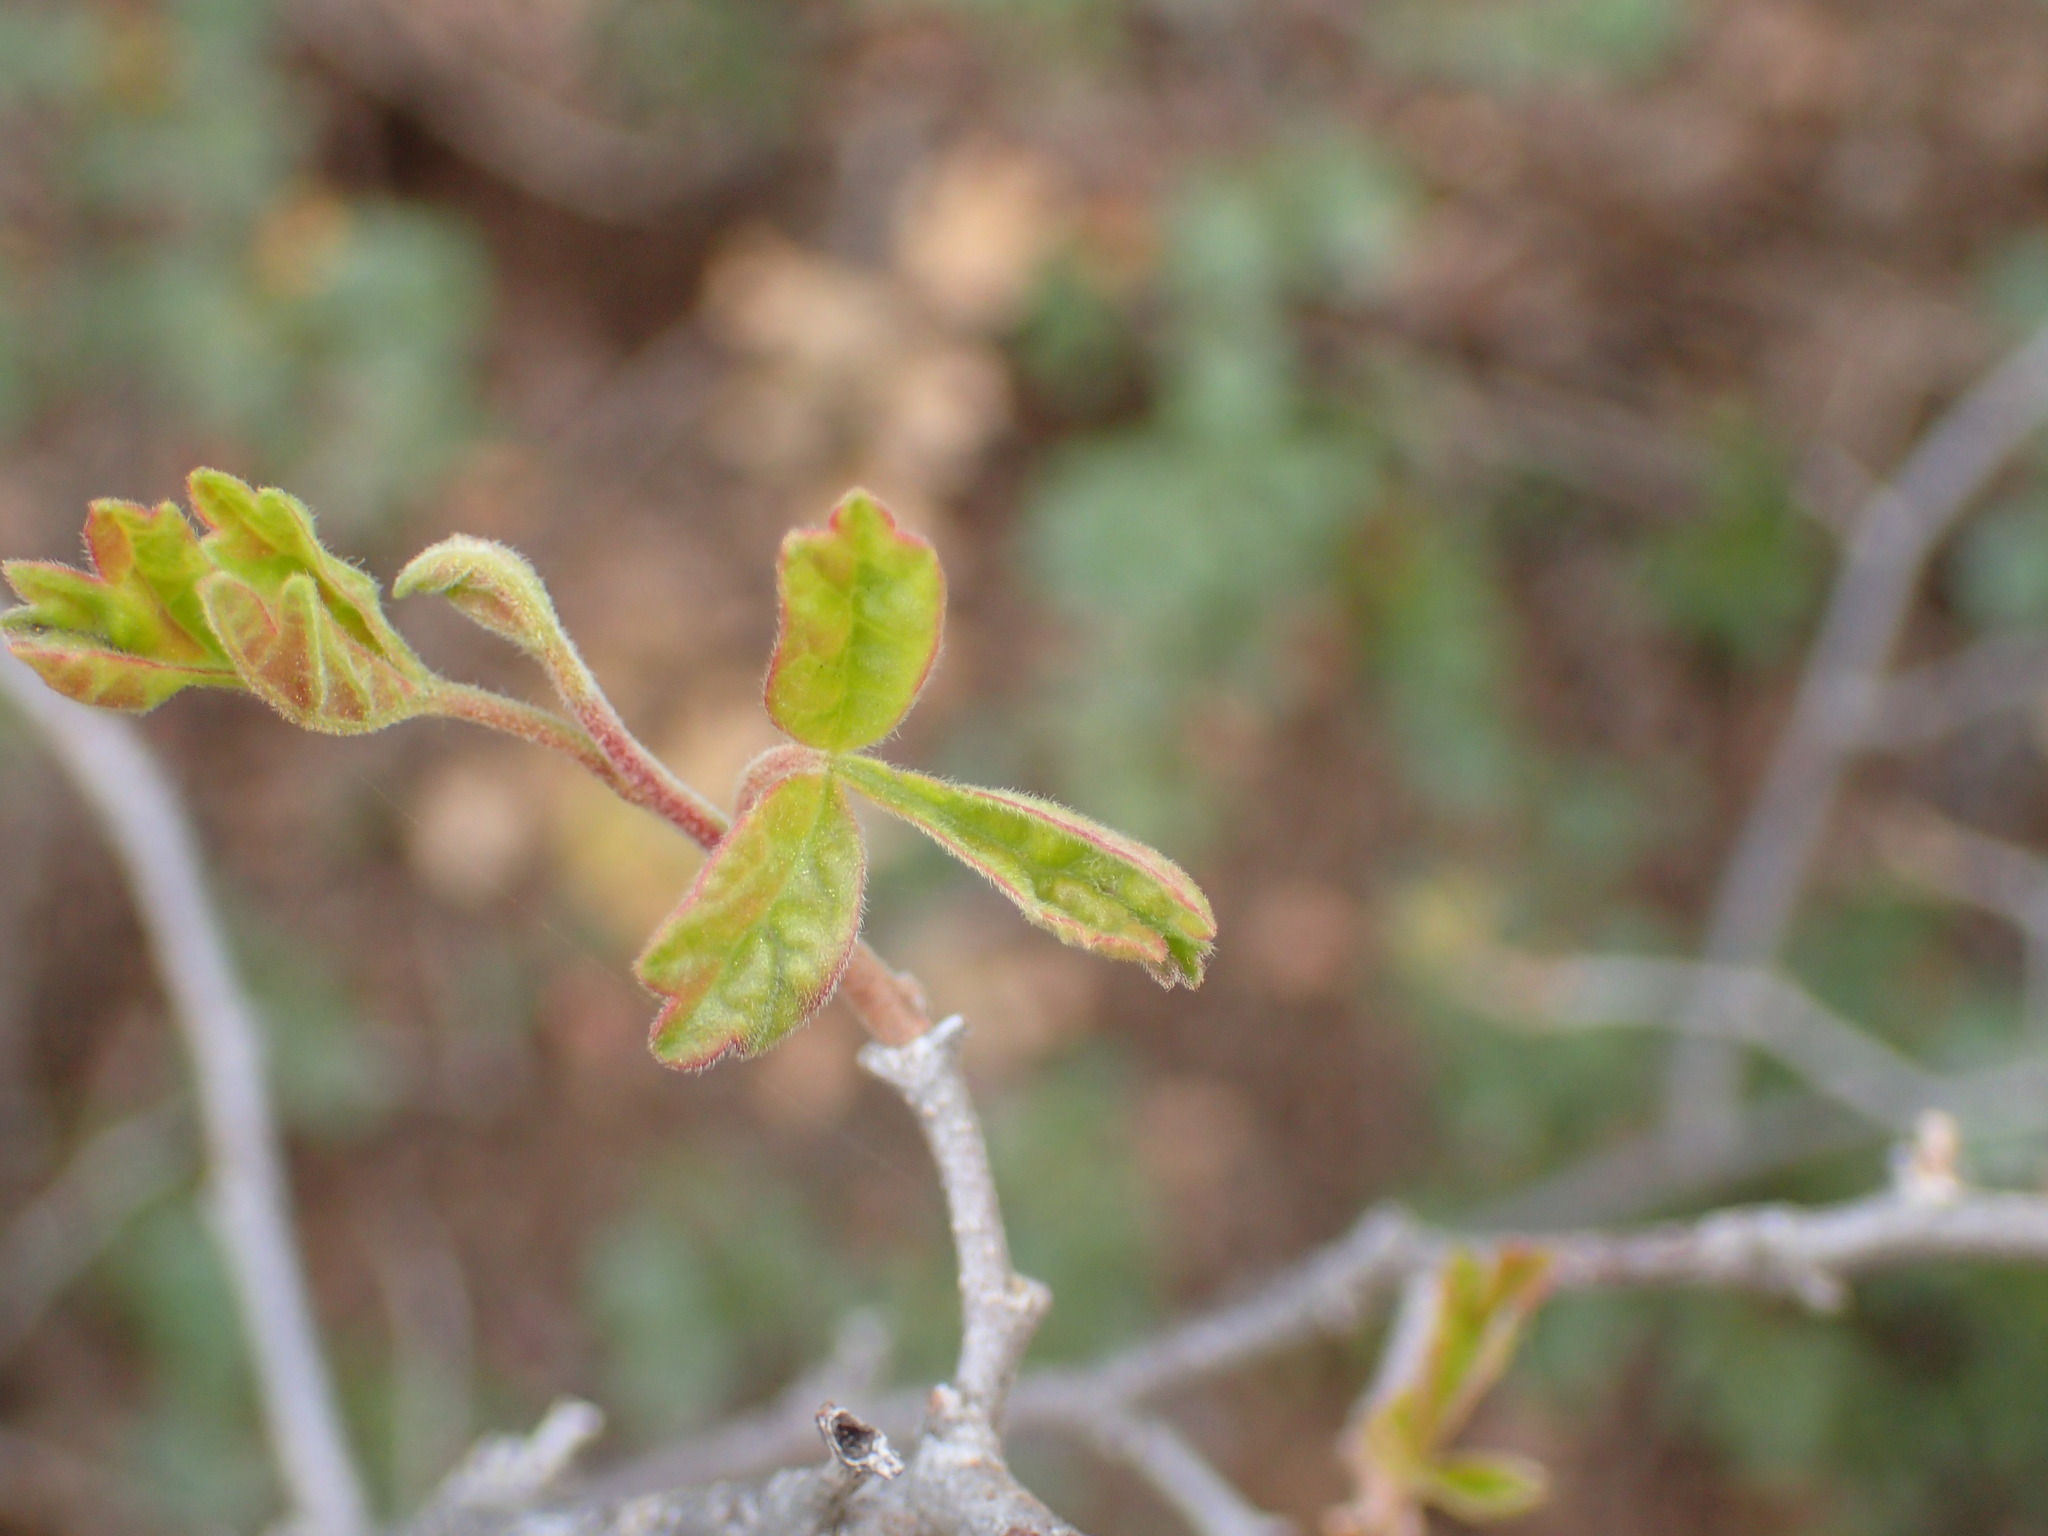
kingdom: Plantae
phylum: Tracheophyta
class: Magnoliopsida
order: Sapindales
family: Anacardiaceae
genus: Rhus
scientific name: Rhus aromatica
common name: Aromatic sumac
